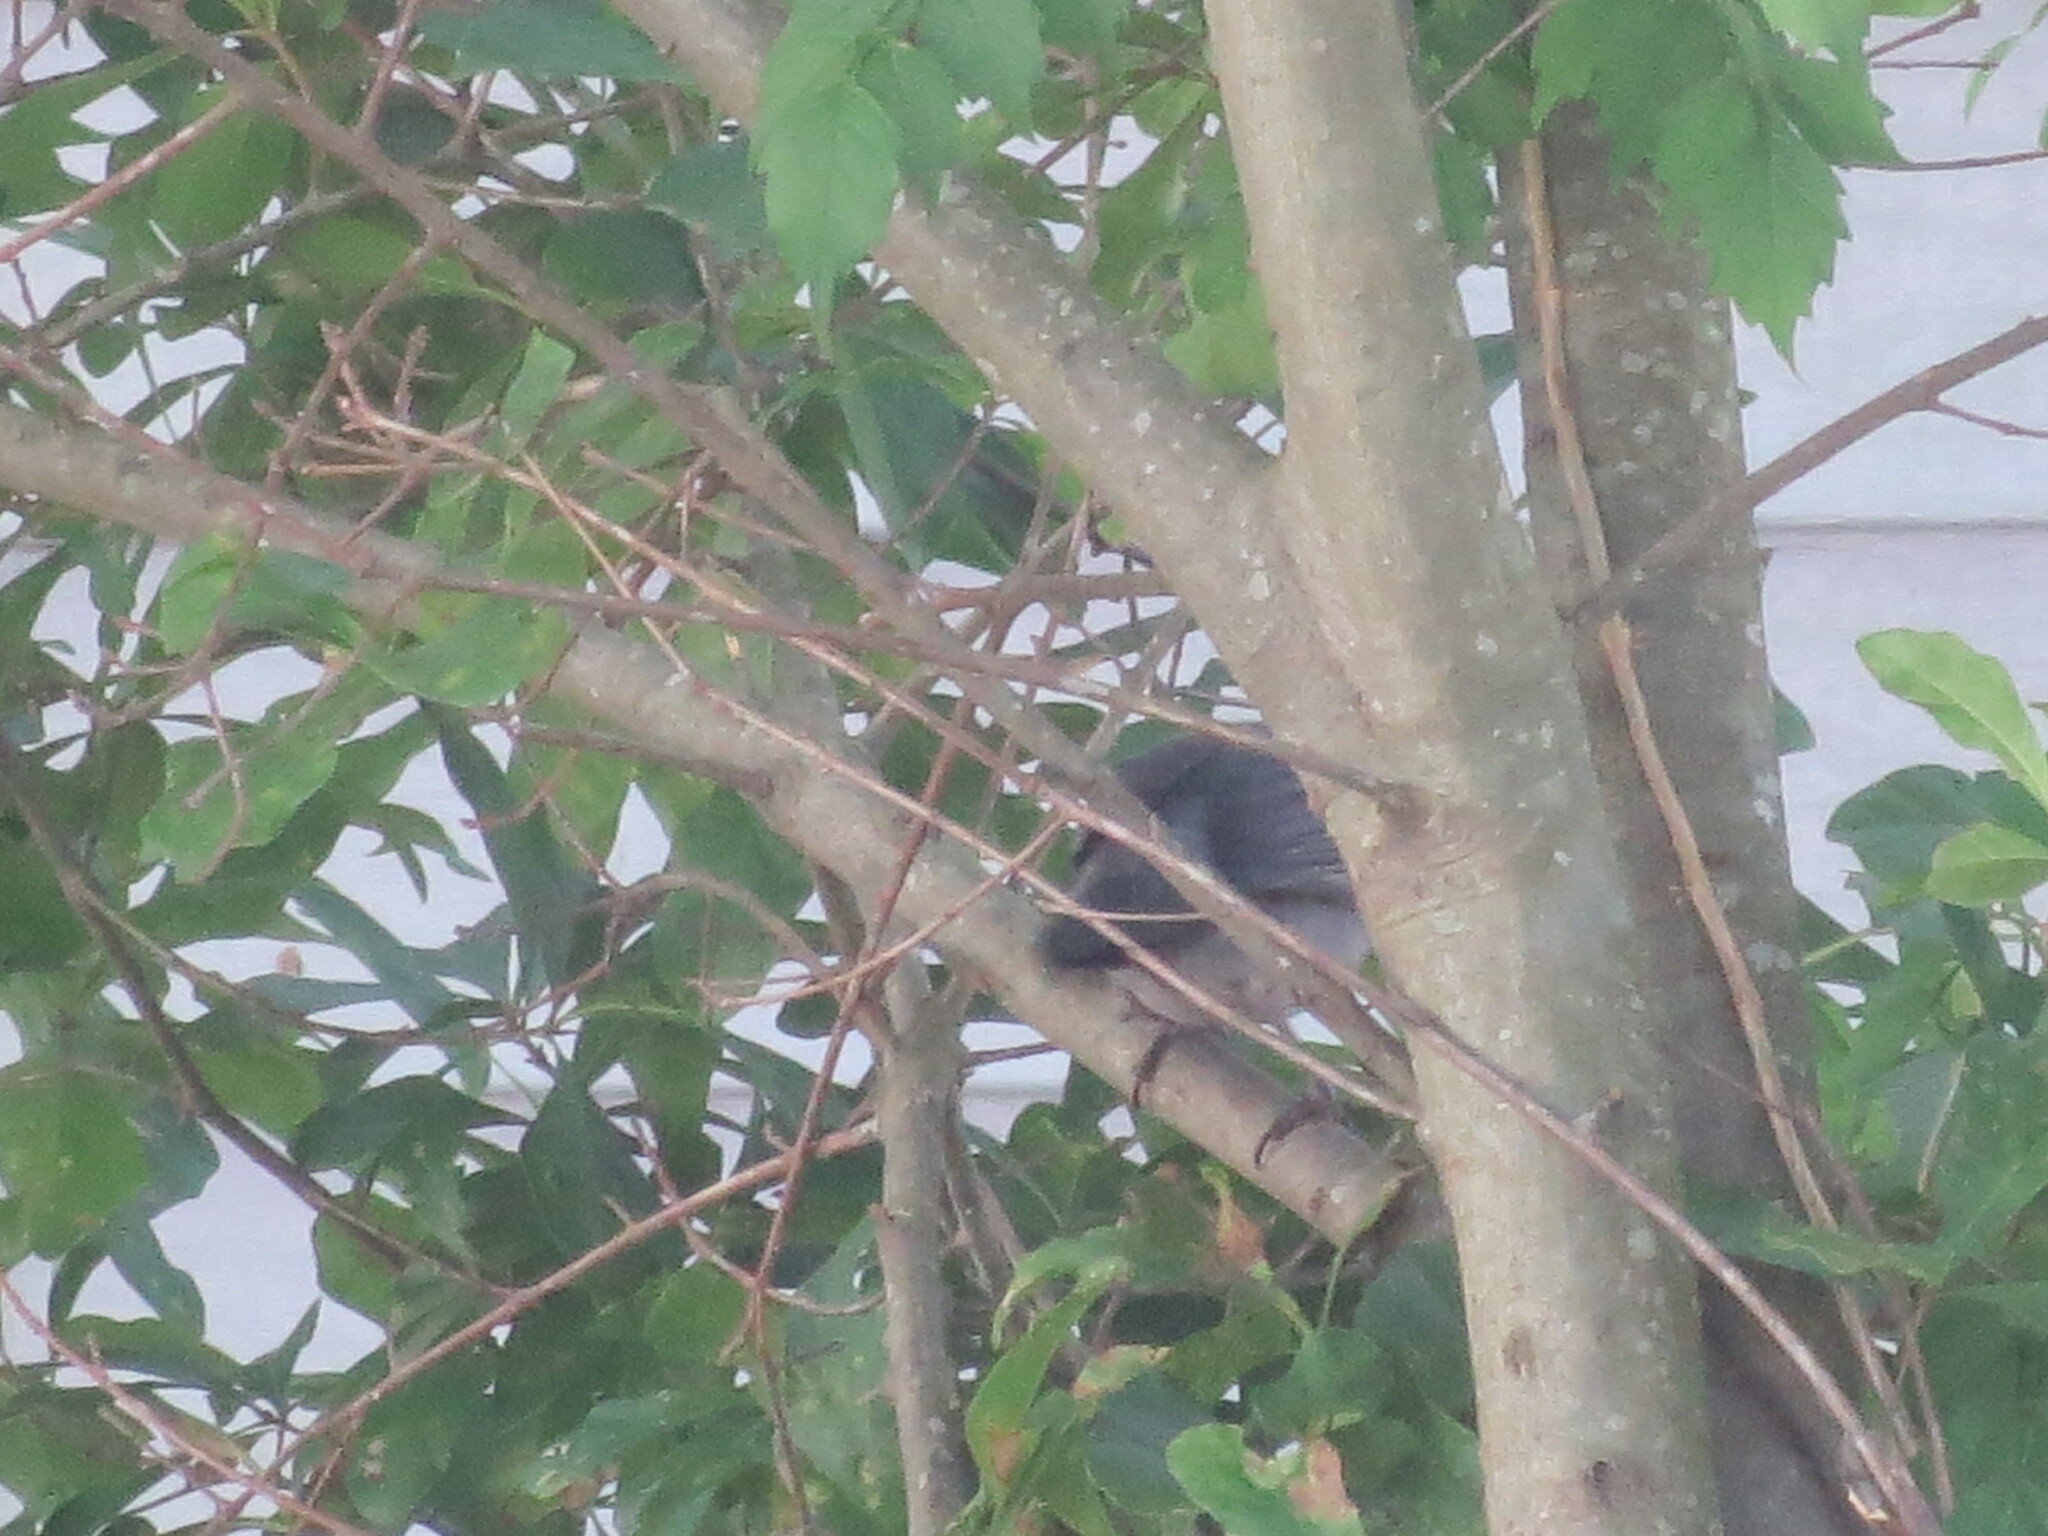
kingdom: Animalia
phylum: Chordata
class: Aves
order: Passeriformes
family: Mimidae
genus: Dumetella
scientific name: Dumetella carolinensis
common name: Gray catbird
